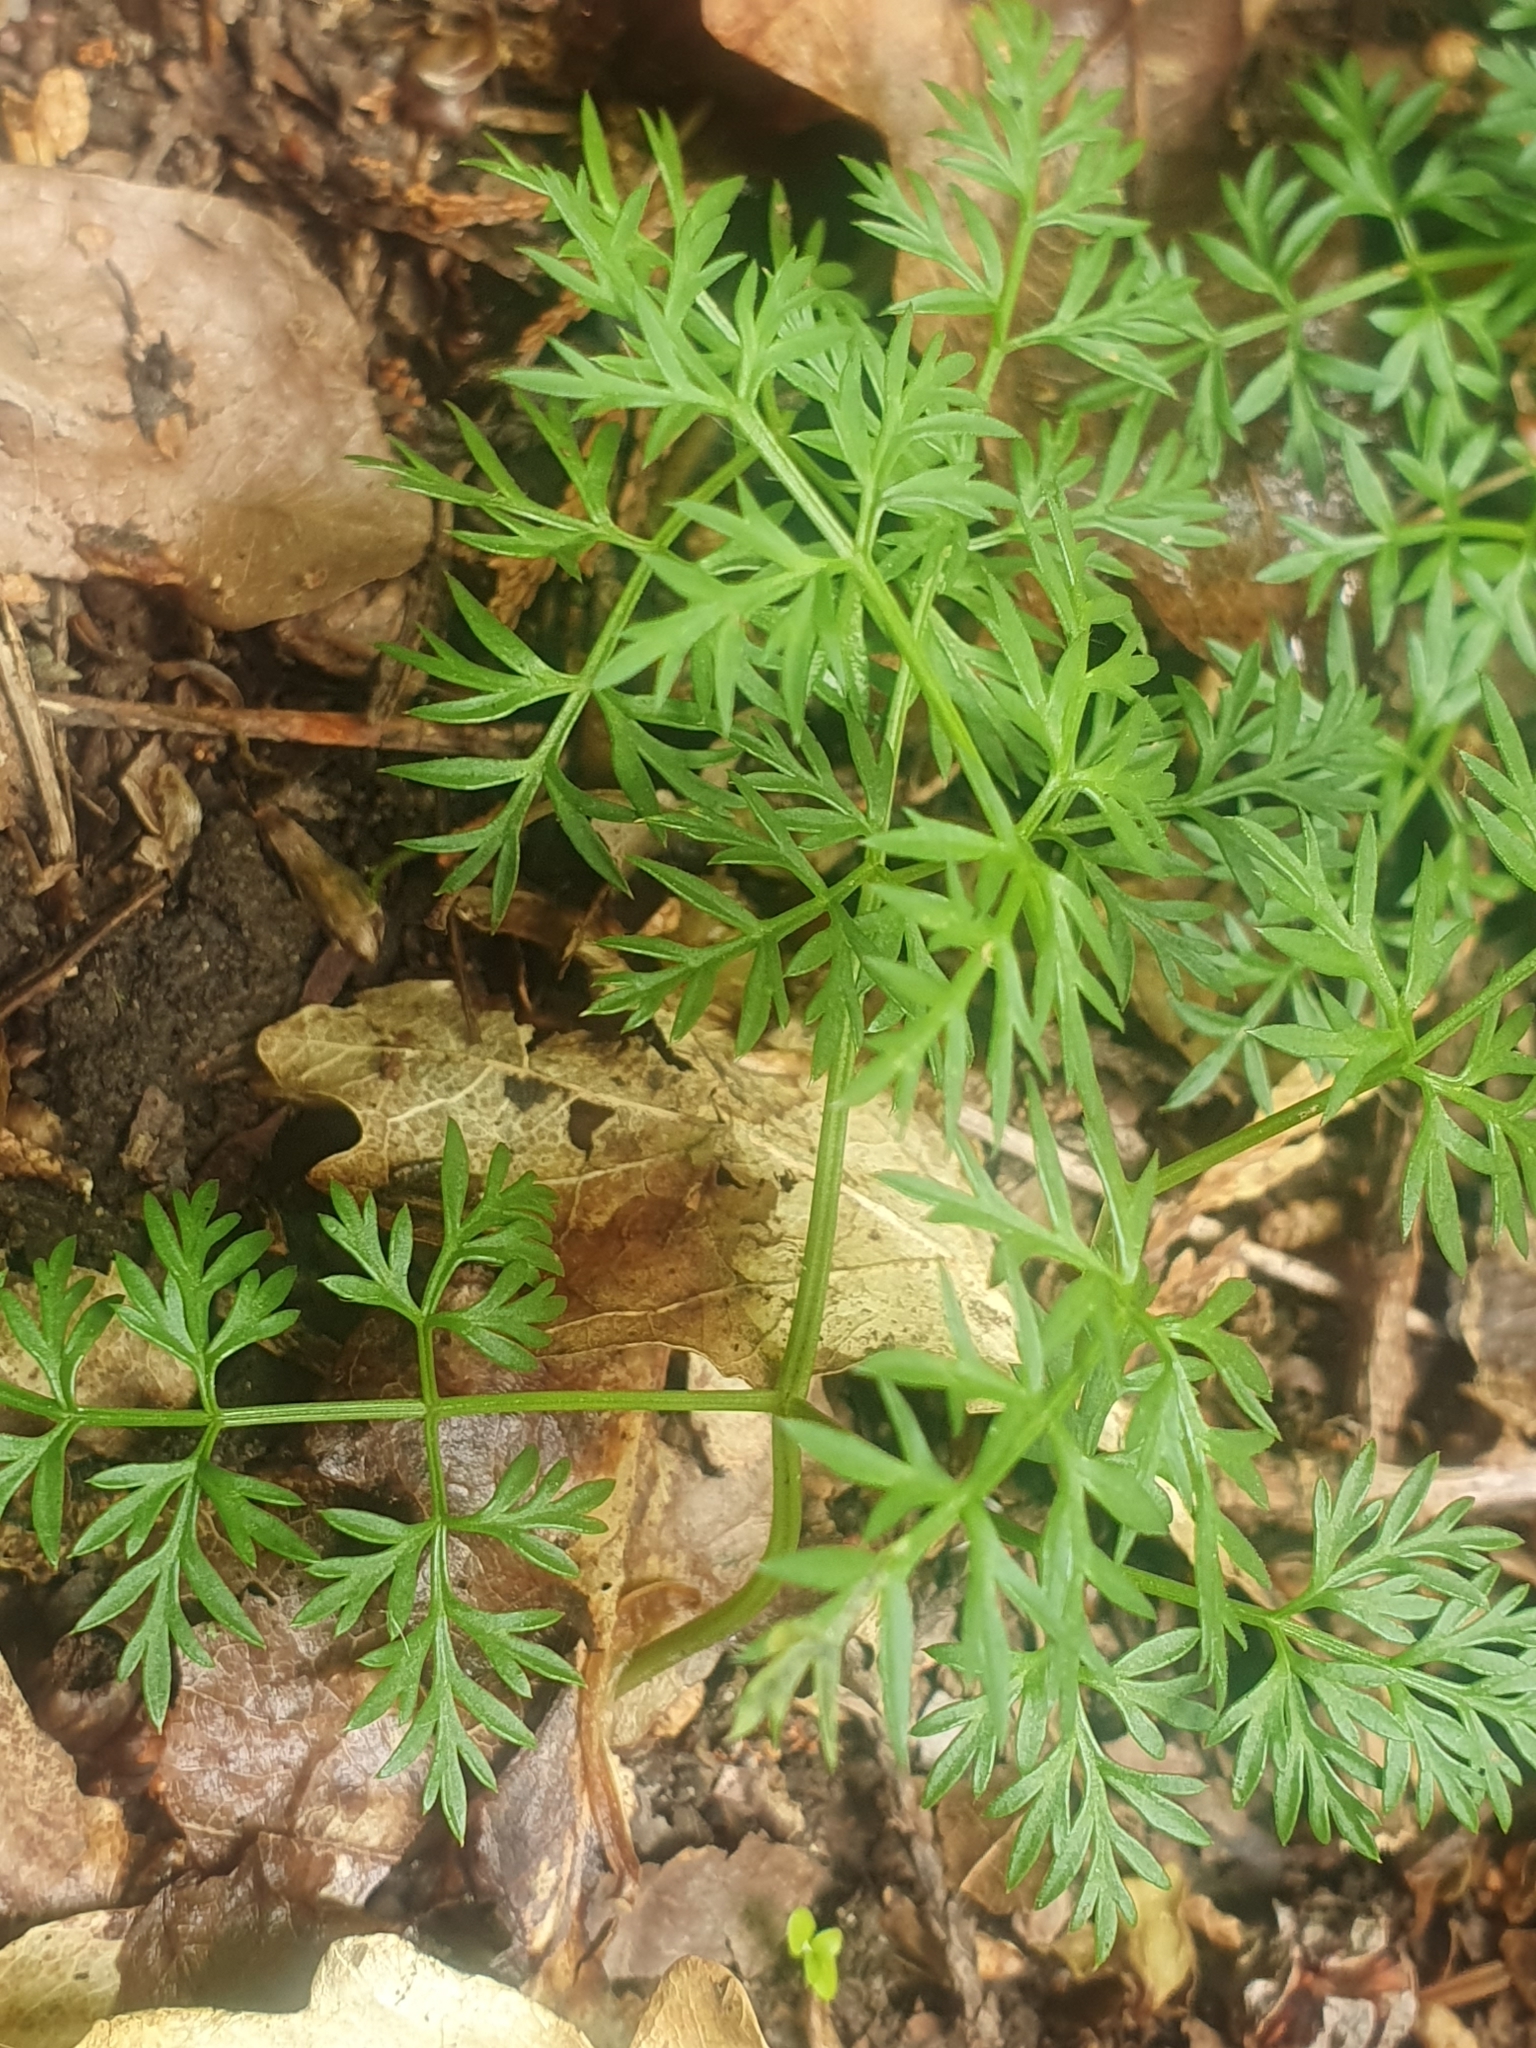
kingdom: Plantae
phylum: Tracheophyta
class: Magnoliopsida
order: Apiales
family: Apiaceae
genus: Conopodium
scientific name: Conopodium majus
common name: Pignut
